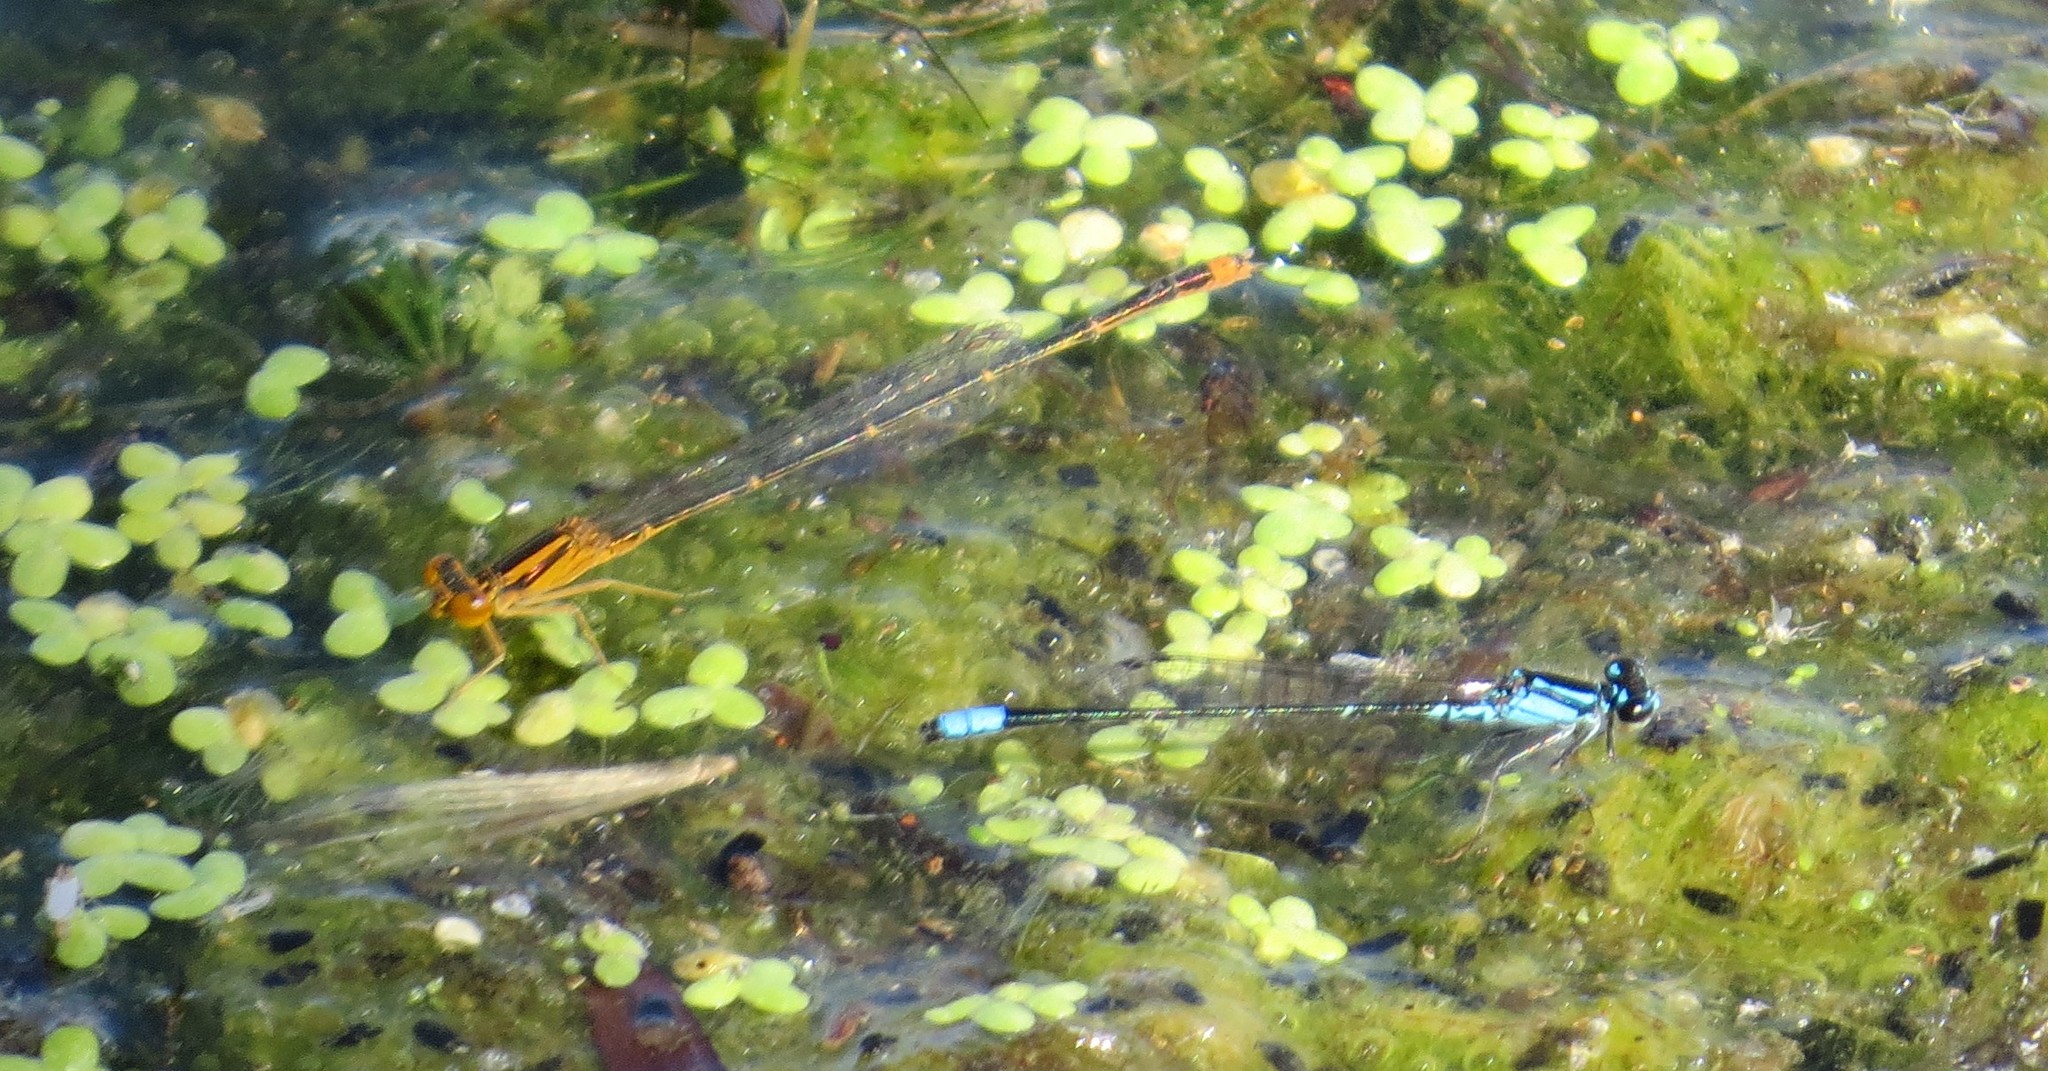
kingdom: Animalia
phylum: Arthropoda
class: Insecta
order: Odonata
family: Coenagrionidae
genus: Enallagma
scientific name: Enallagma signatum
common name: Orange bluet
